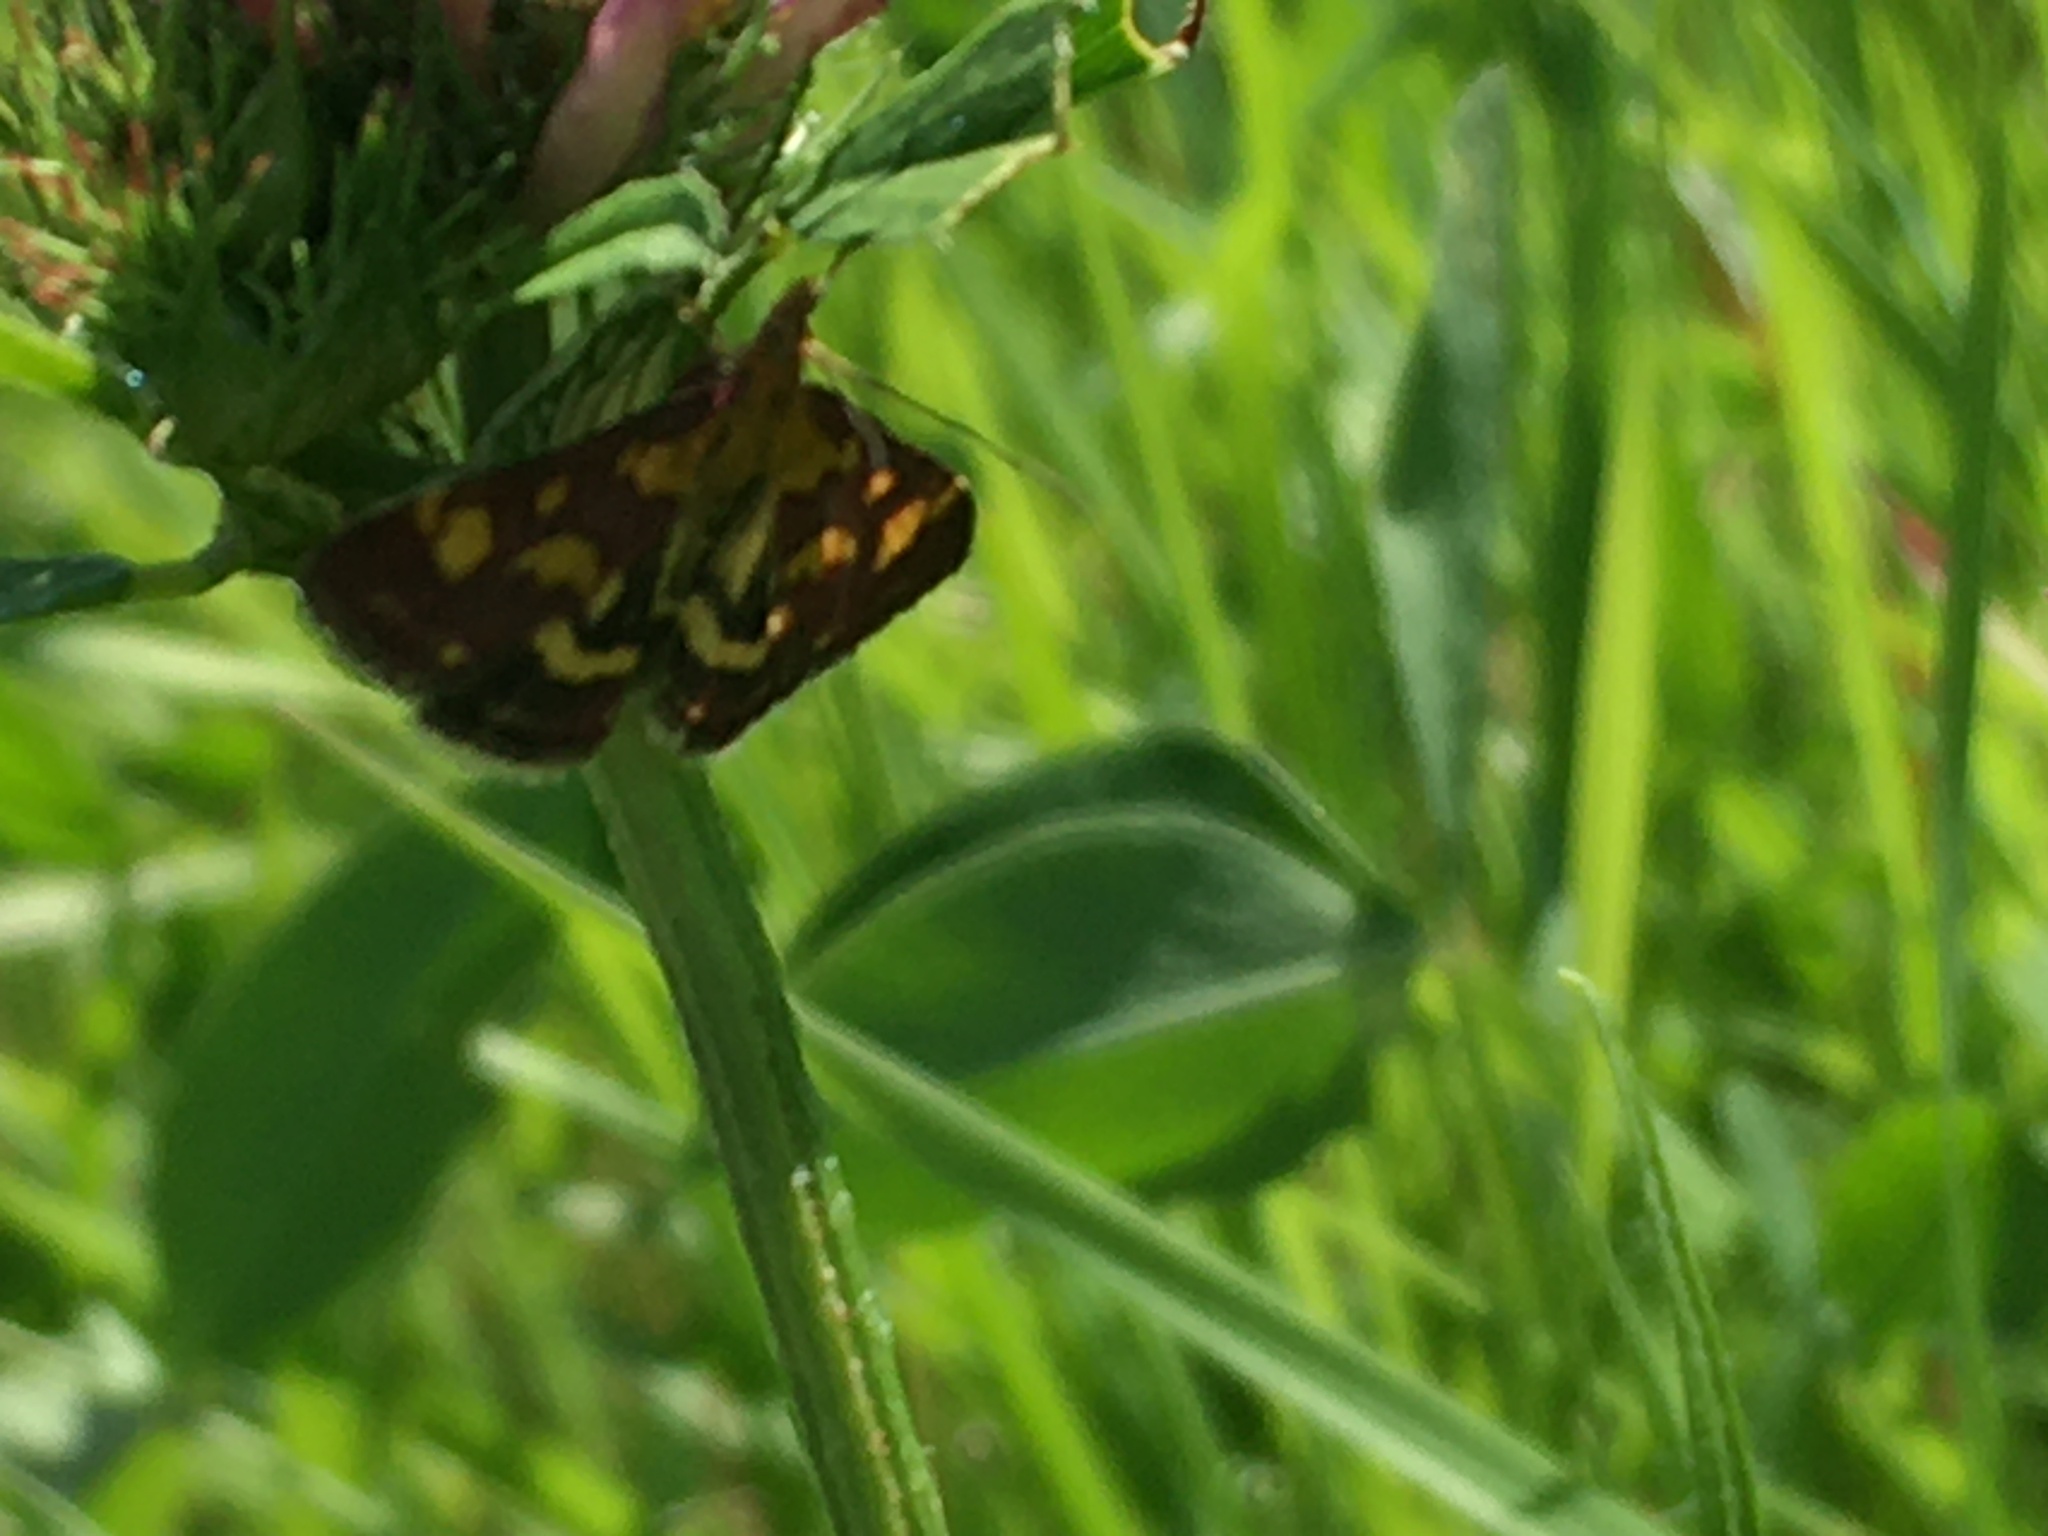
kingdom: Animalia
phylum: Arthropoda
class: Insecta
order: Lepidoptera
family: Crambidae
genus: Pyrausta
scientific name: Pyrausta purpuralis
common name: Common purple & gold
